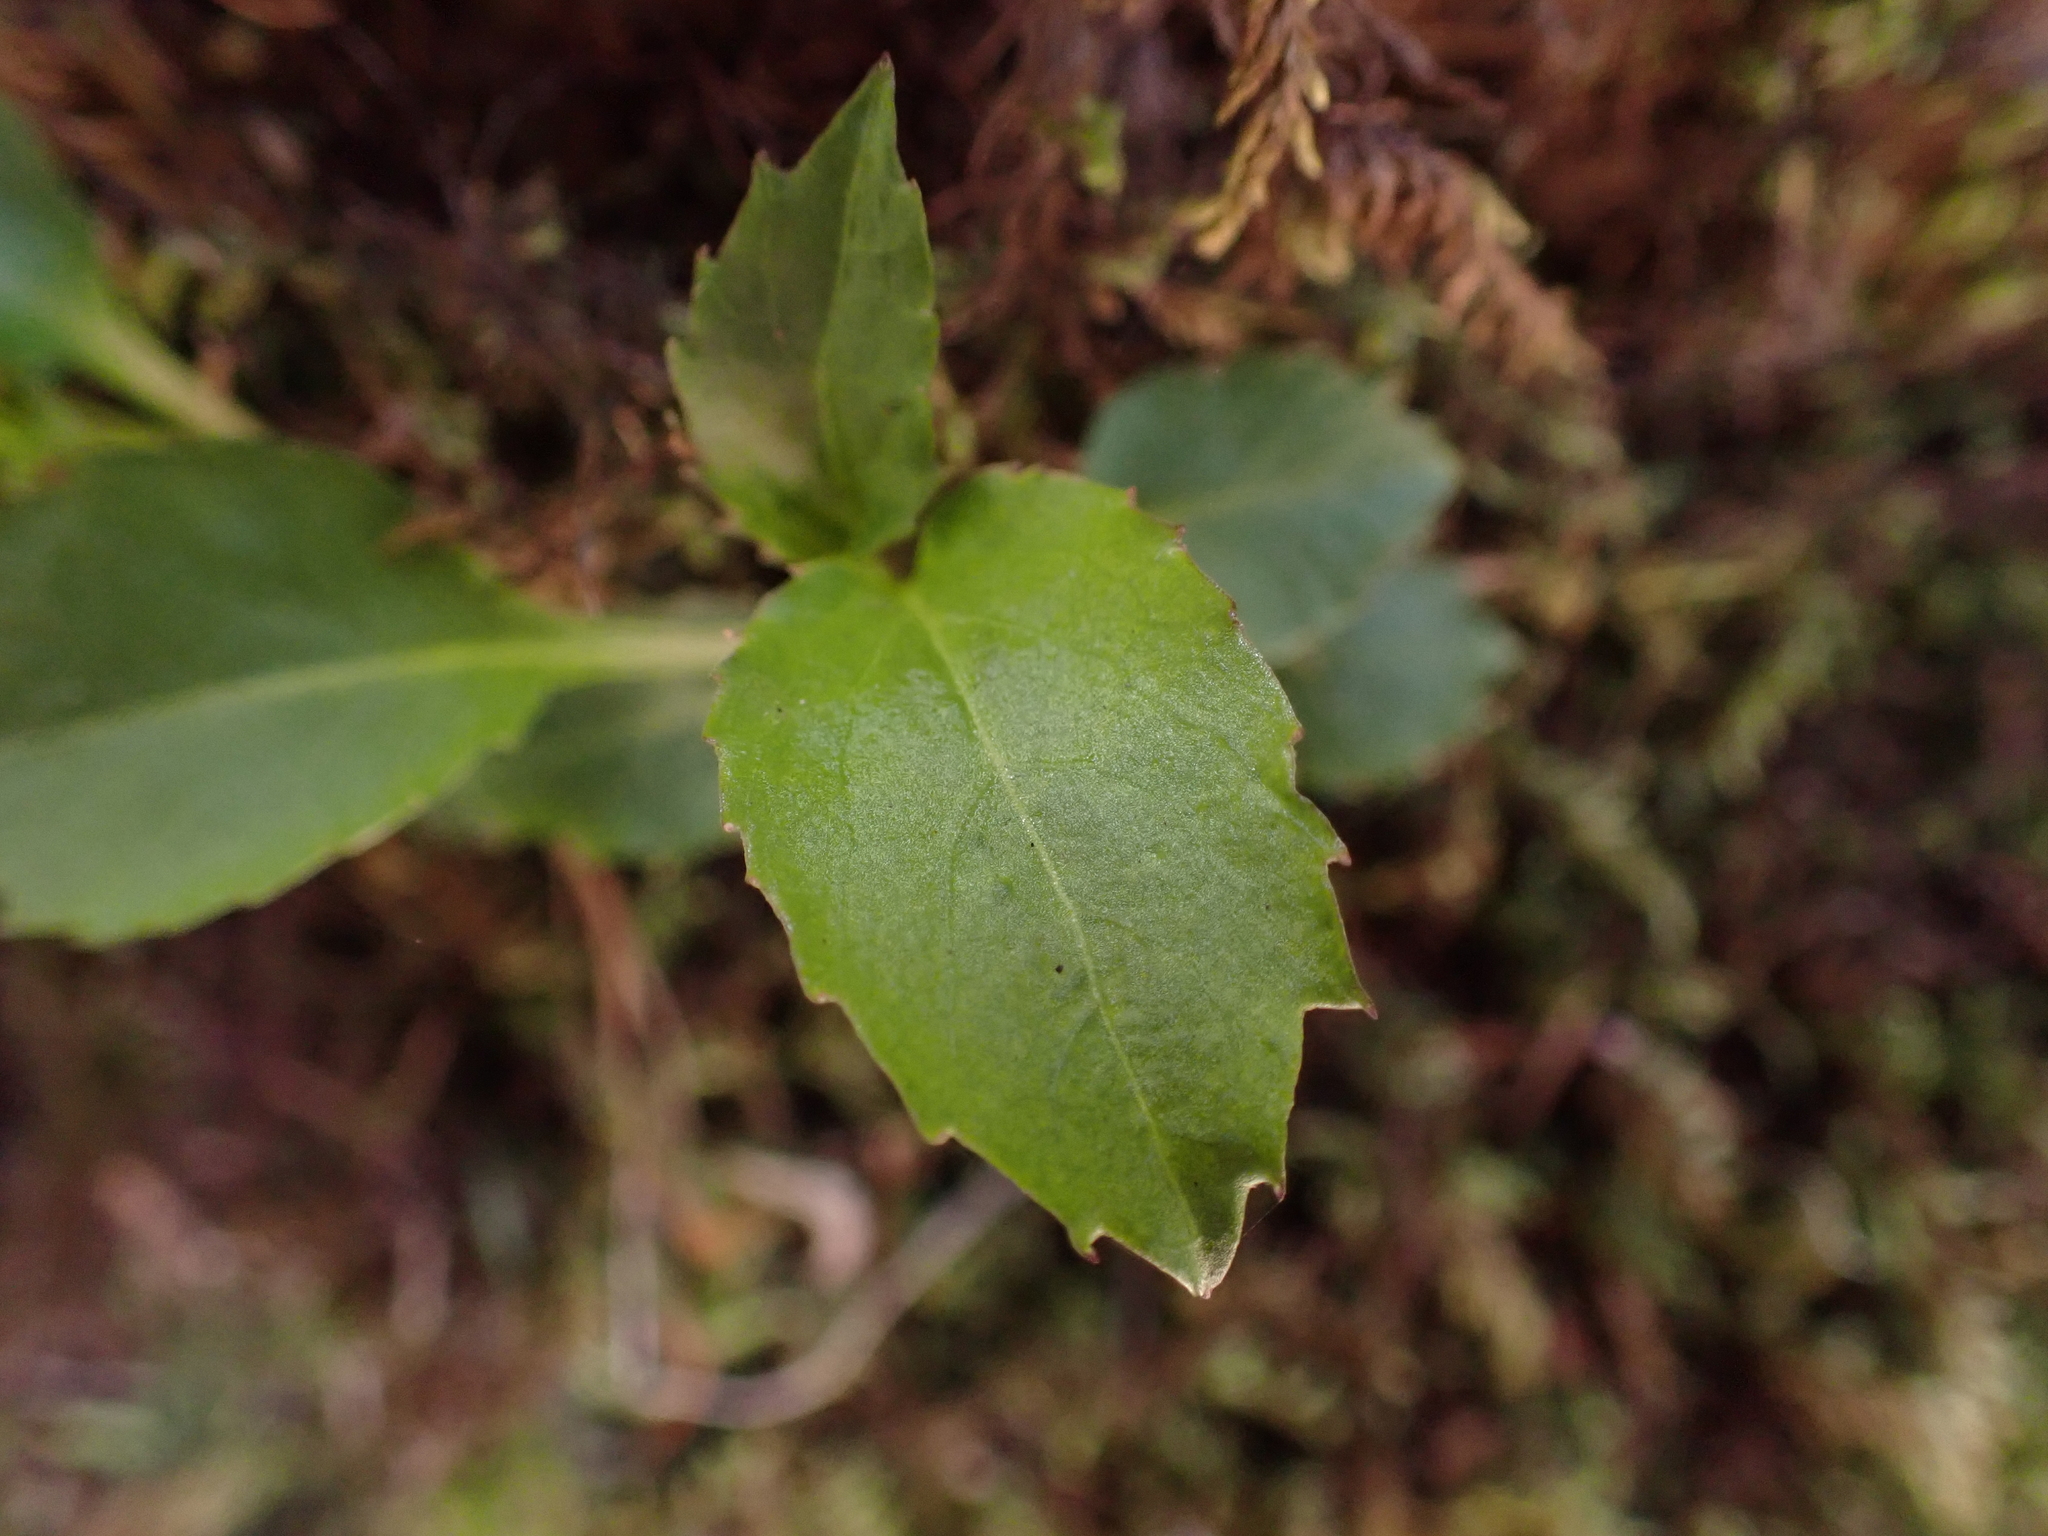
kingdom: Plantae
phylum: Tracheophyta
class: Magnoliopsida
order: Asterales
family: Campanulaceae
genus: Campanula
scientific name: Campanula scouleri
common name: Scouler's harebell
